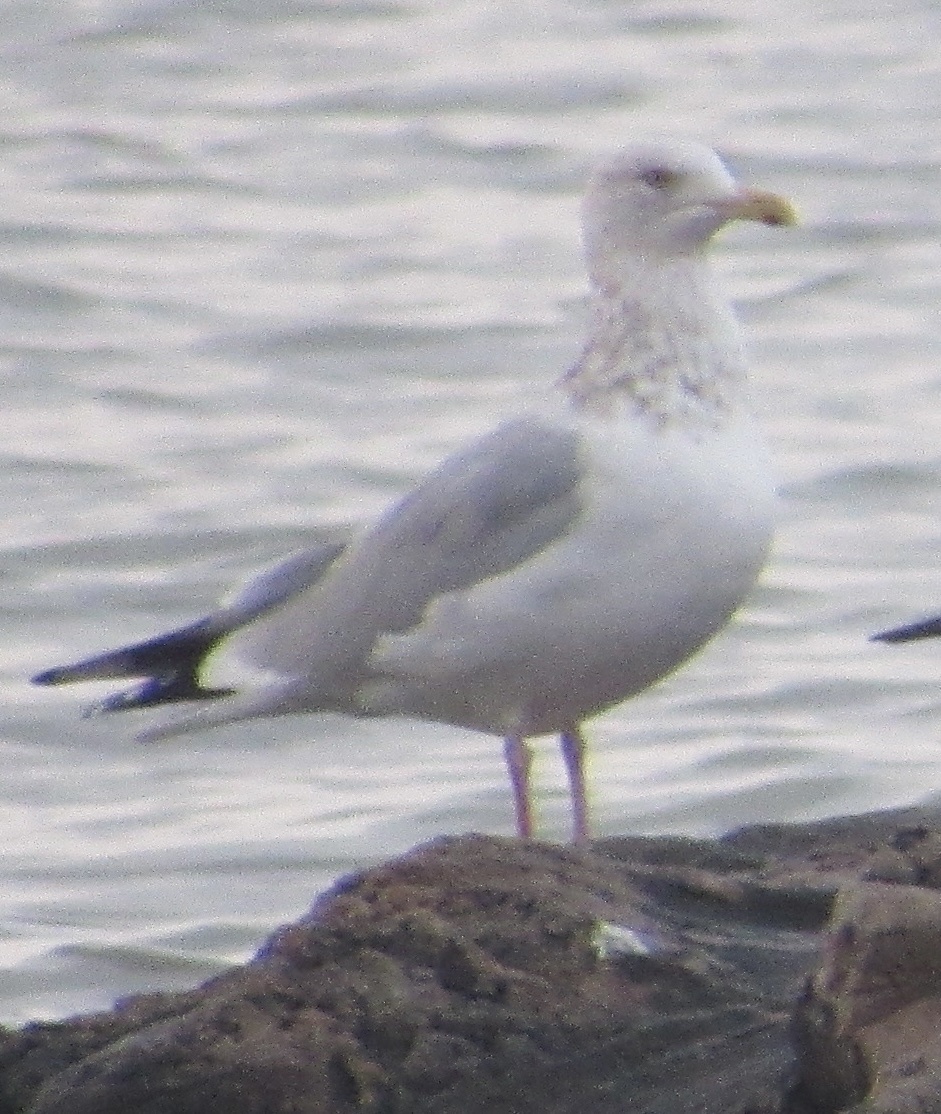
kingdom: Animalia
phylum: Chordata
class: Aves
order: Charadriiformes
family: Laridae
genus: Larus
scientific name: Larus argentatus
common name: Herring gull
